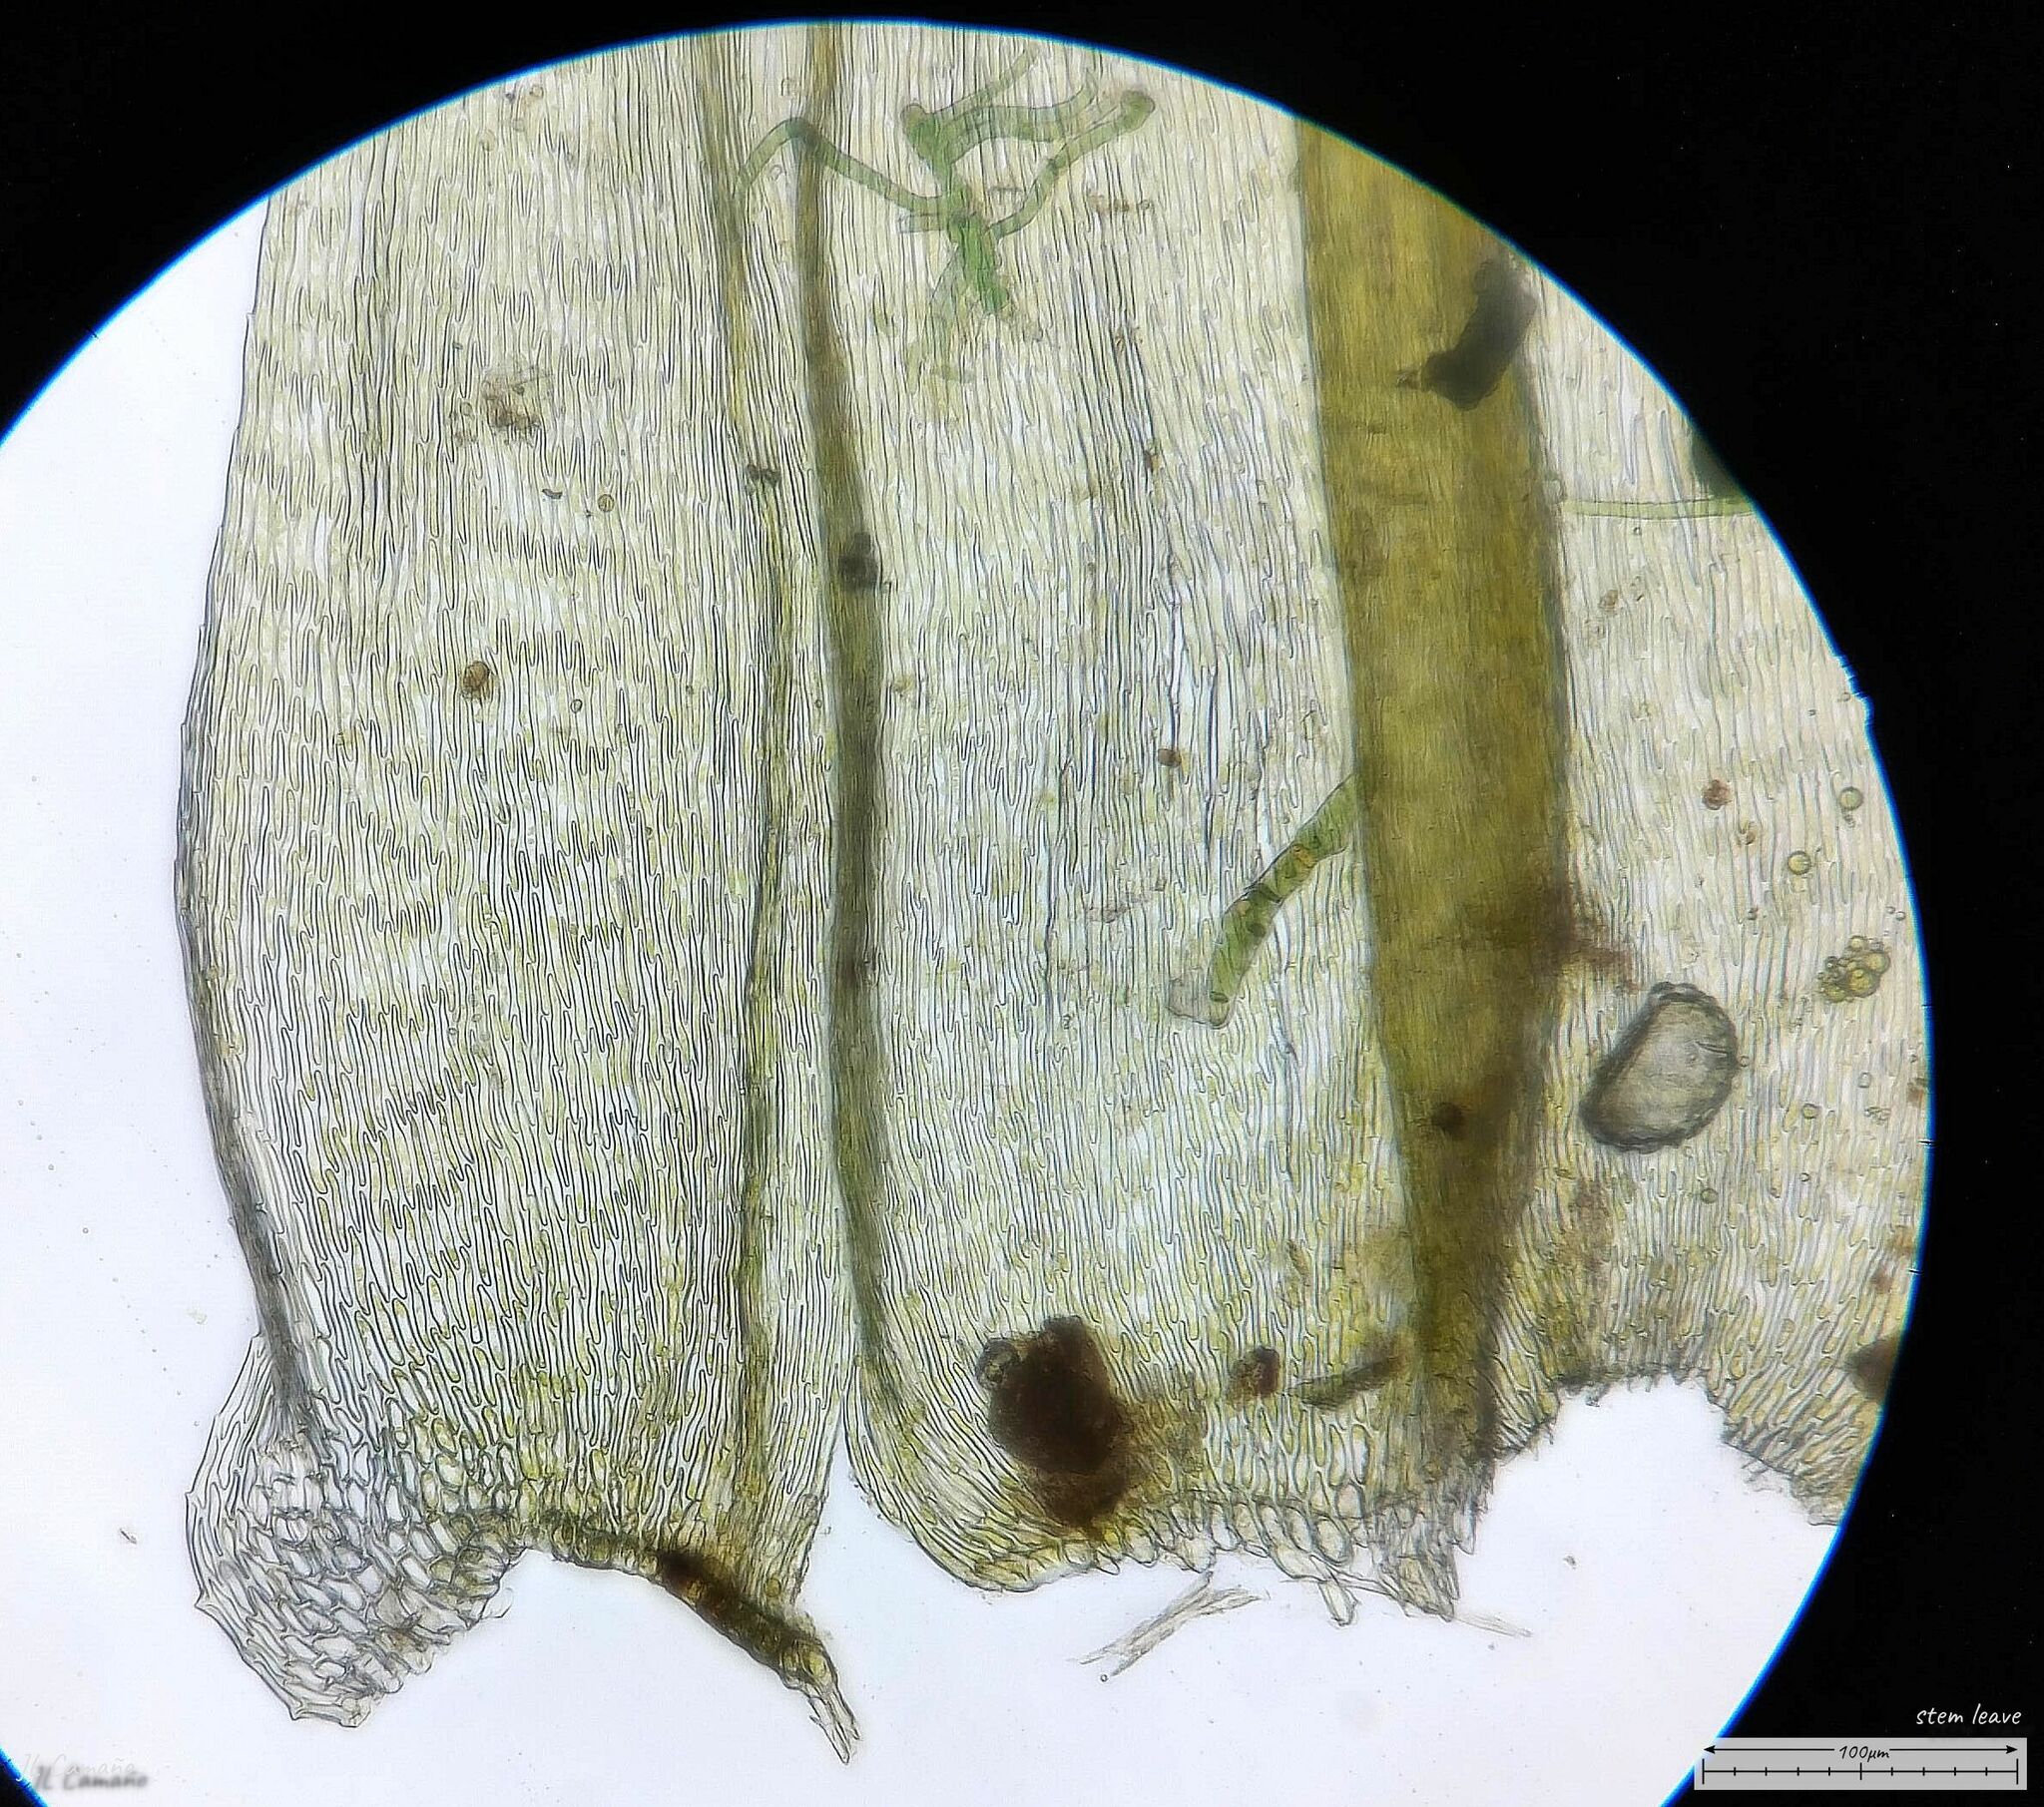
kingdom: Plantae
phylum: Bryophyta
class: Bryopsida
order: Hypnales
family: Brachytheciaceae
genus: Homalothecium
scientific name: Homalothecium sericeum
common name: Silky wall feather-moss
